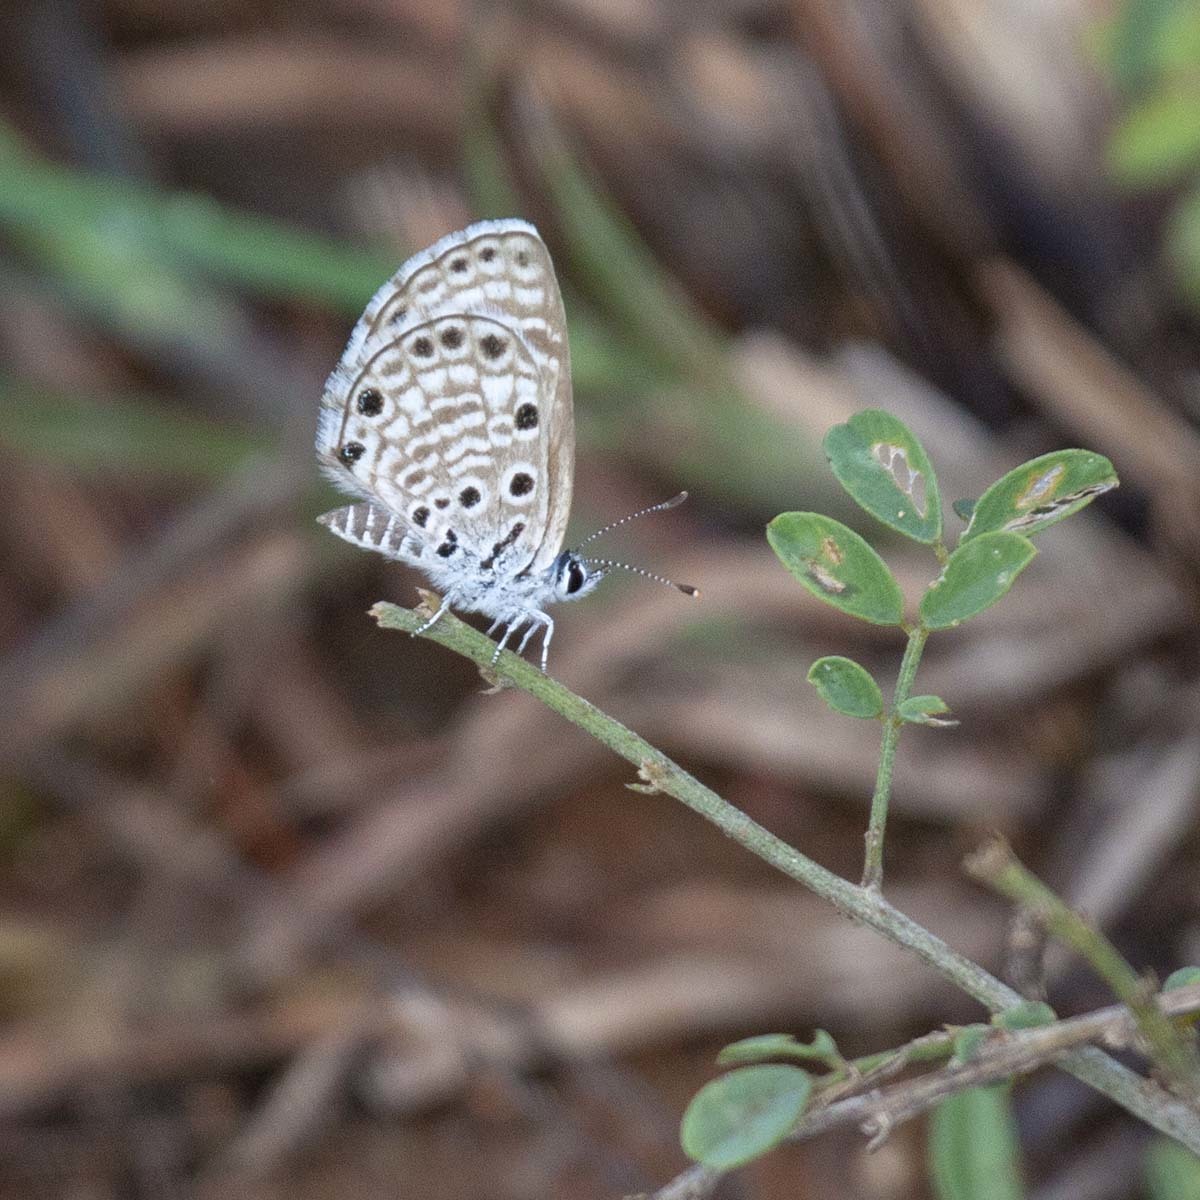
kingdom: Animalia
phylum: Arthropoda
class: Insecta
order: Lepidoptera
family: Lycaenidae
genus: Azanus
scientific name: Azanus jesous
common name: African babul blue
